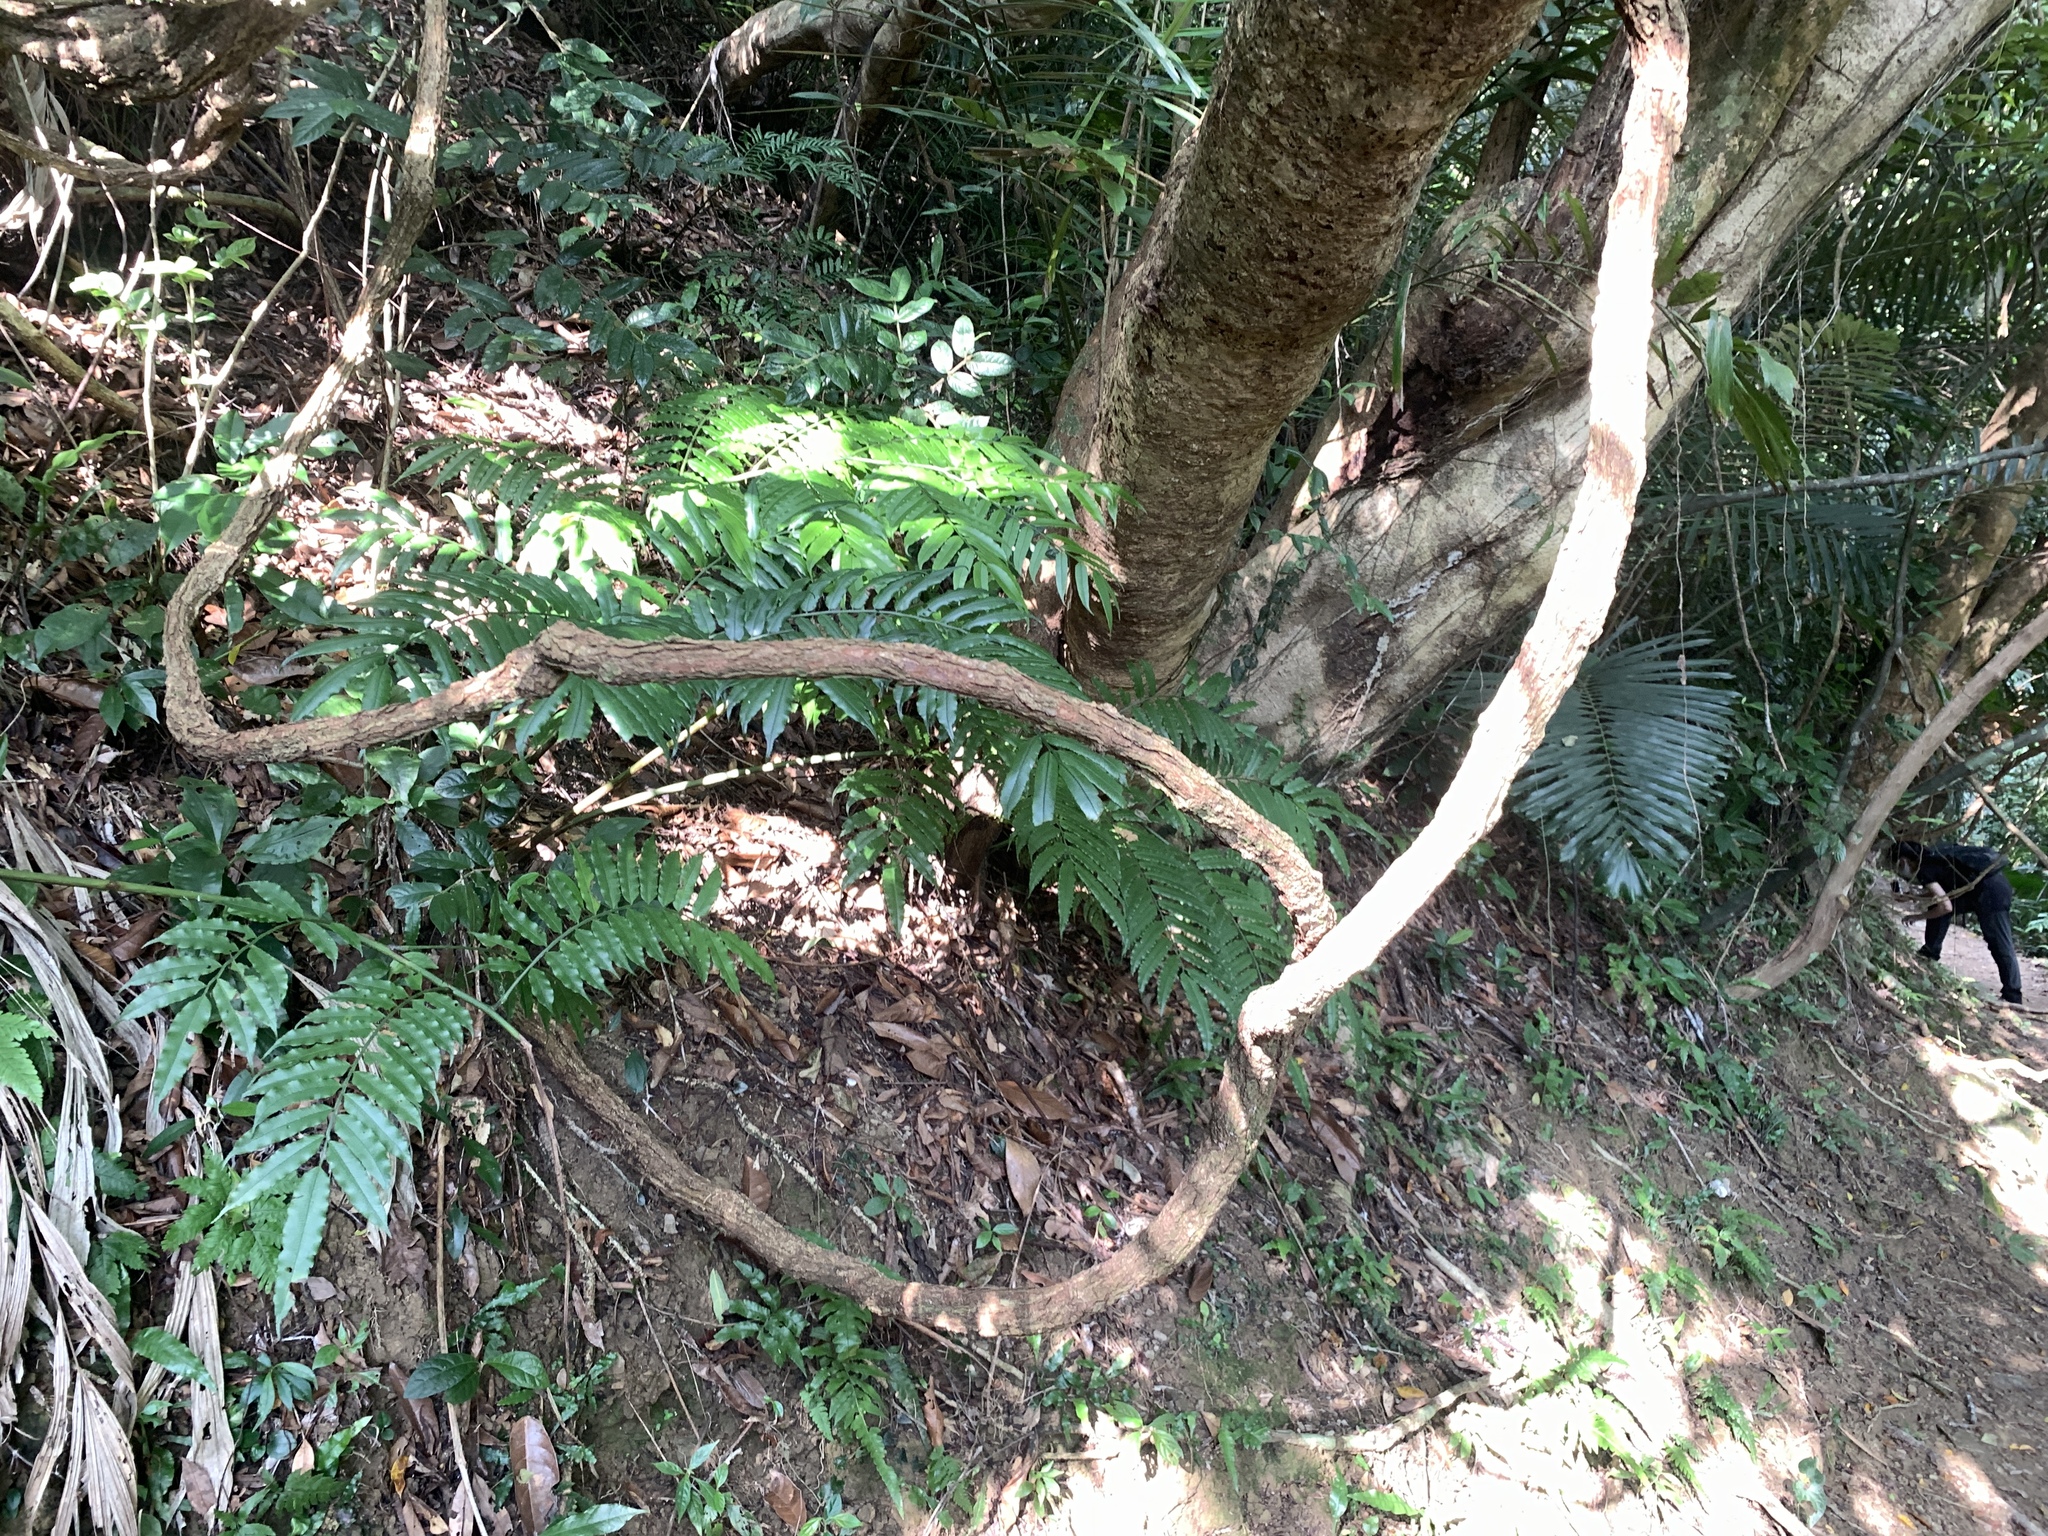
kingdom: Plantae
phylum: Tracheophyta
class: Magnoliopsida
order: Solanales
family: Convolvulaceae
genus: Erycibe
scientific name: Erycibe henryi
